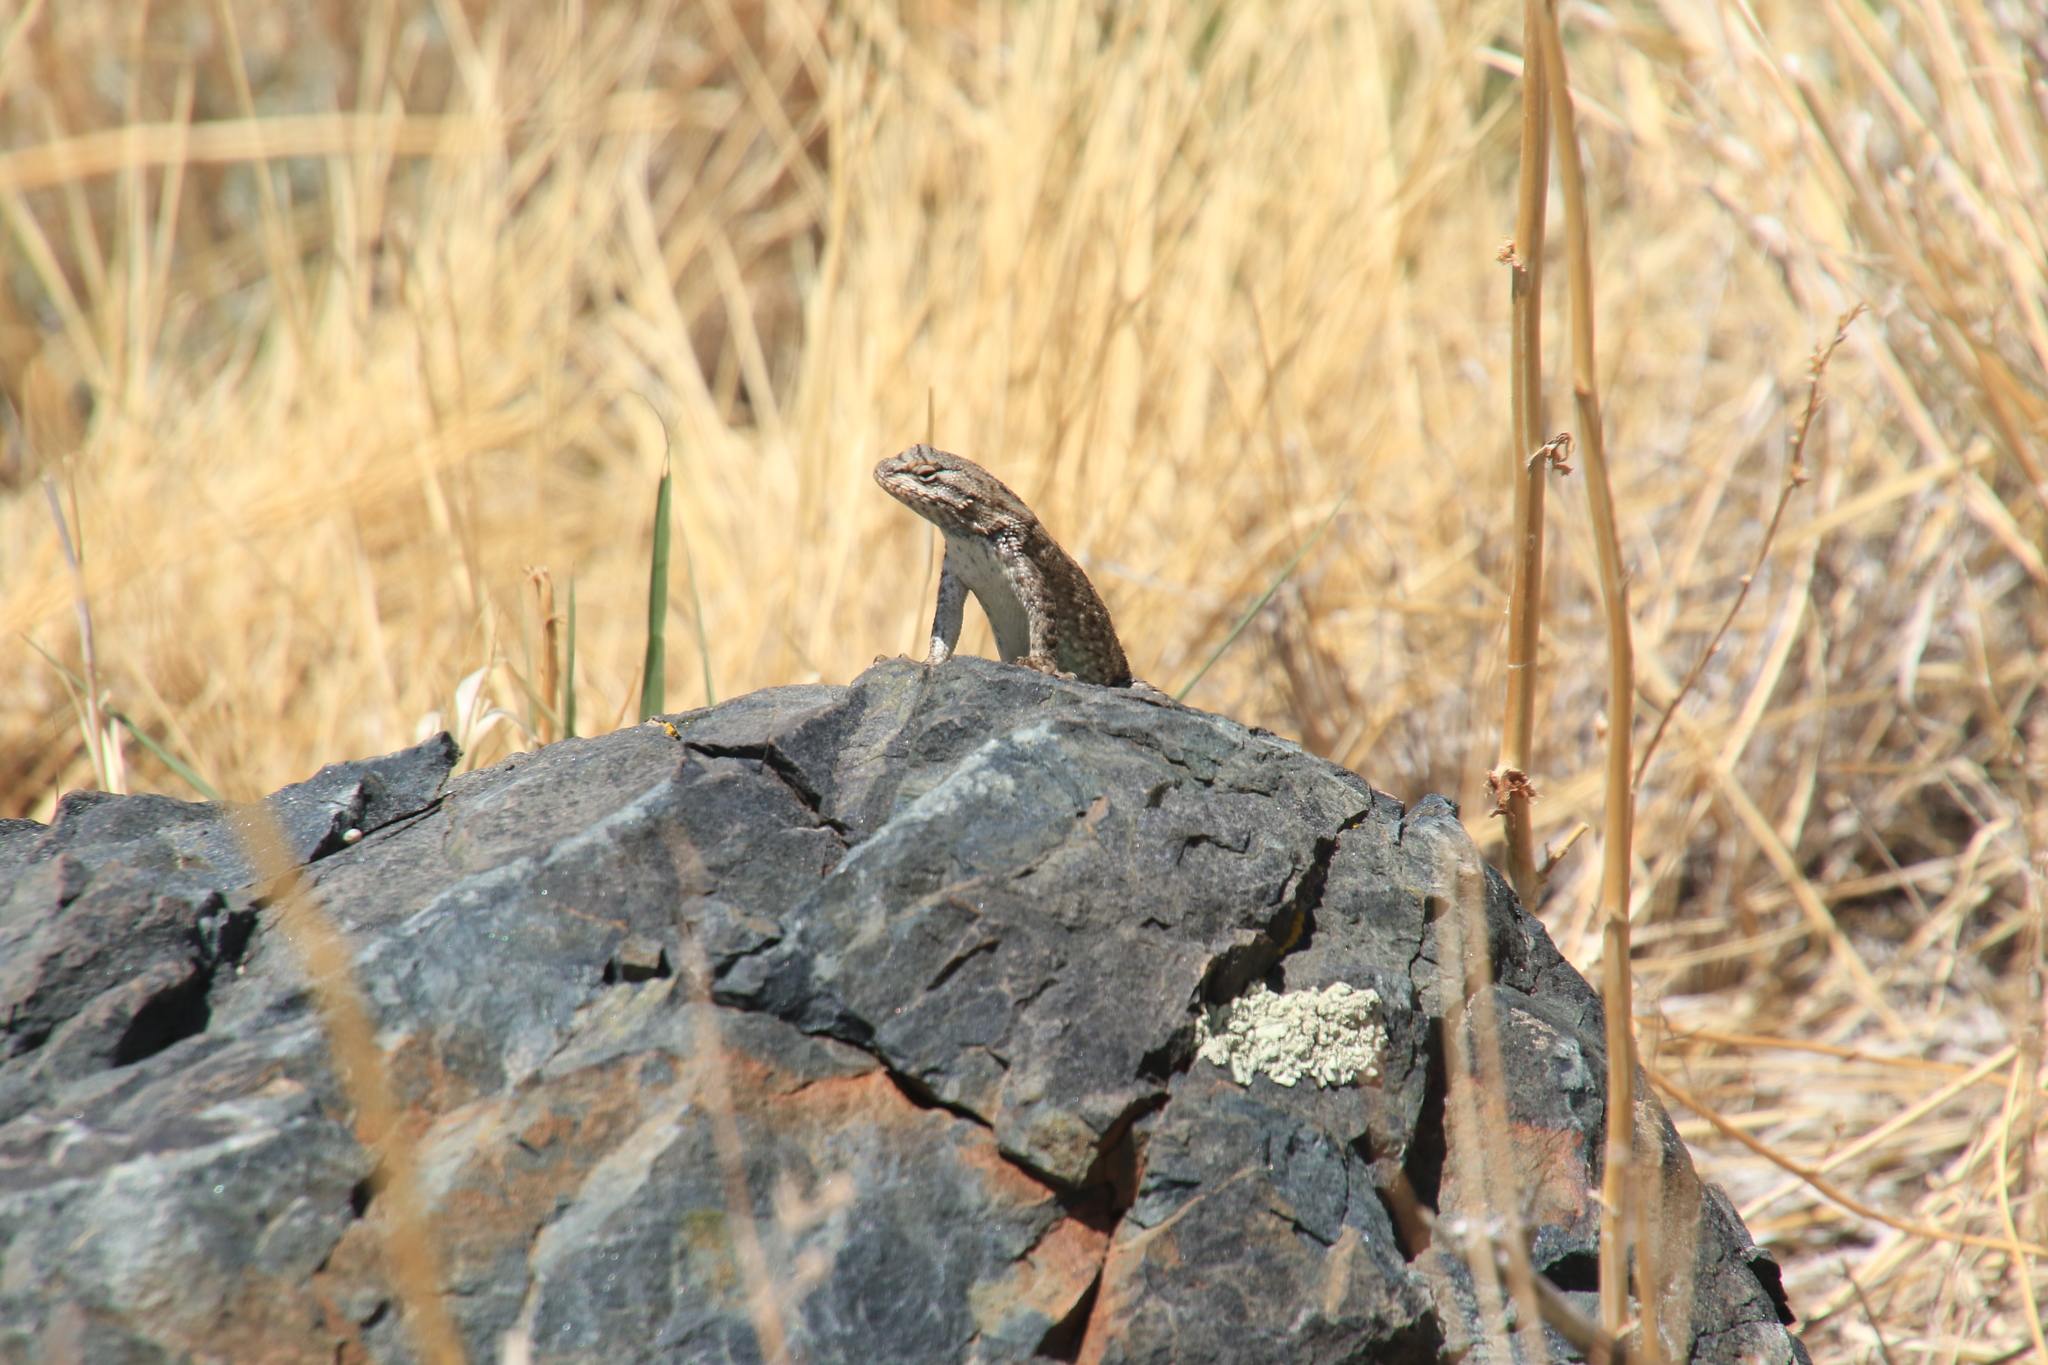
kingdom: Animalia
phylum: Chordata
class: Squamata
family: Phrynosomatidae
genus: Sceloporus
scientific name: Sceloporus tristichus
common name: Plateau fence lizard
